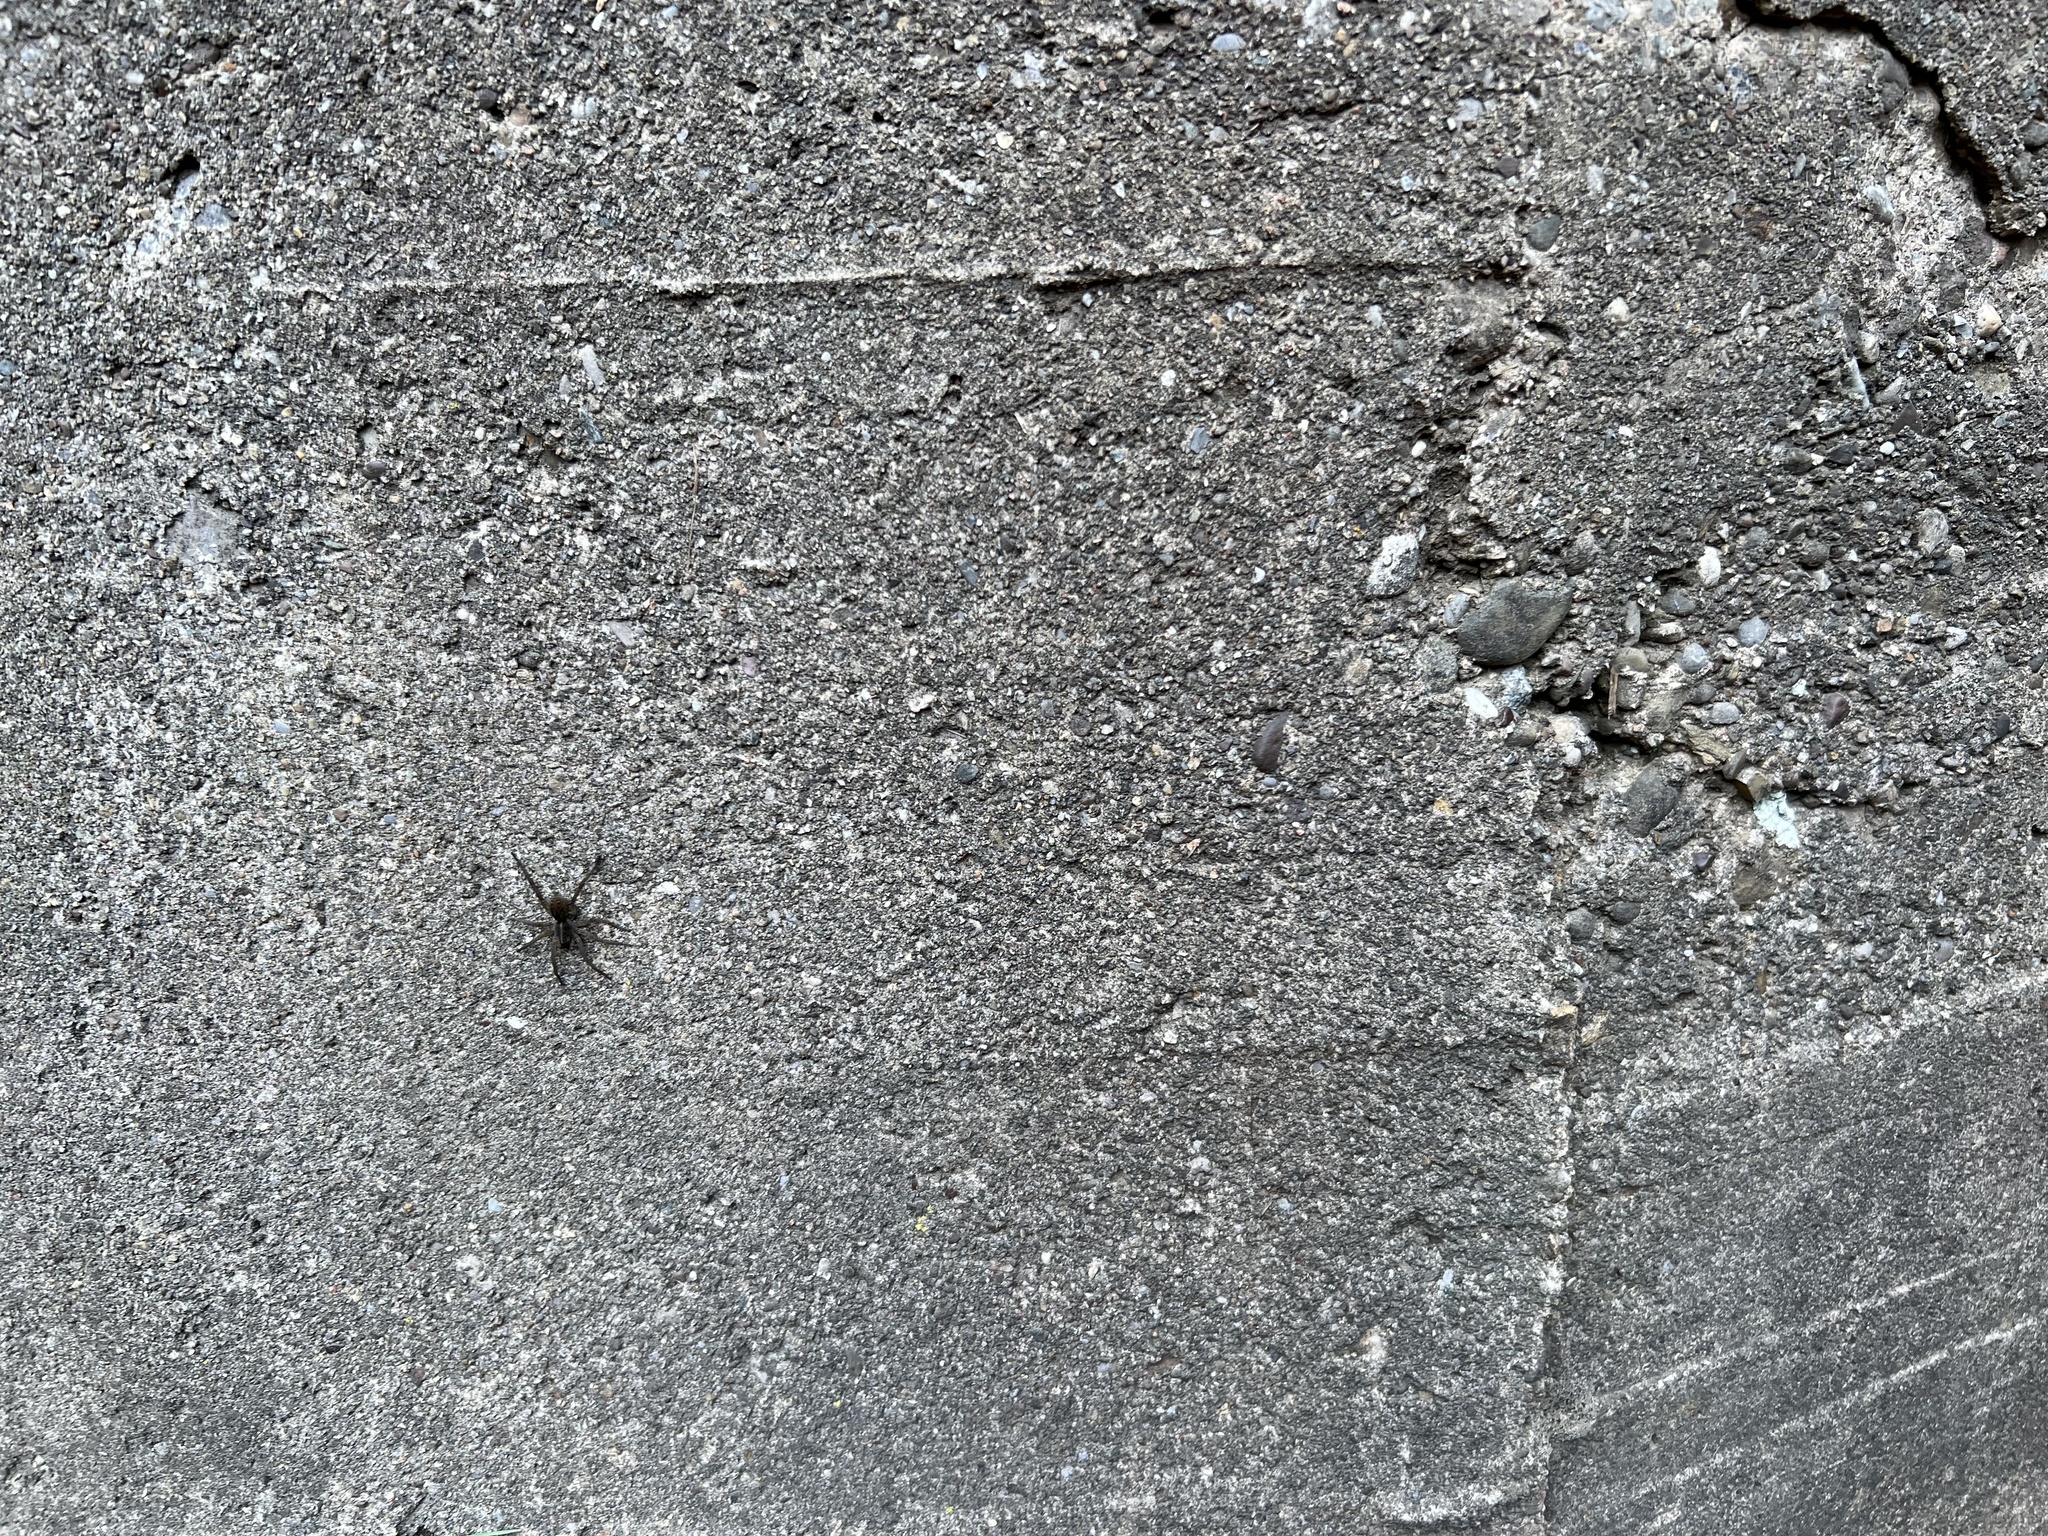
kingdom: Animalia
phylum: Arthropoda
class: Arachnida
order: Araneae
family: Lycosidae
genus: Tigrosa
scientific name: Tigrosa helluo
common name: Wetland giant wolf spider
